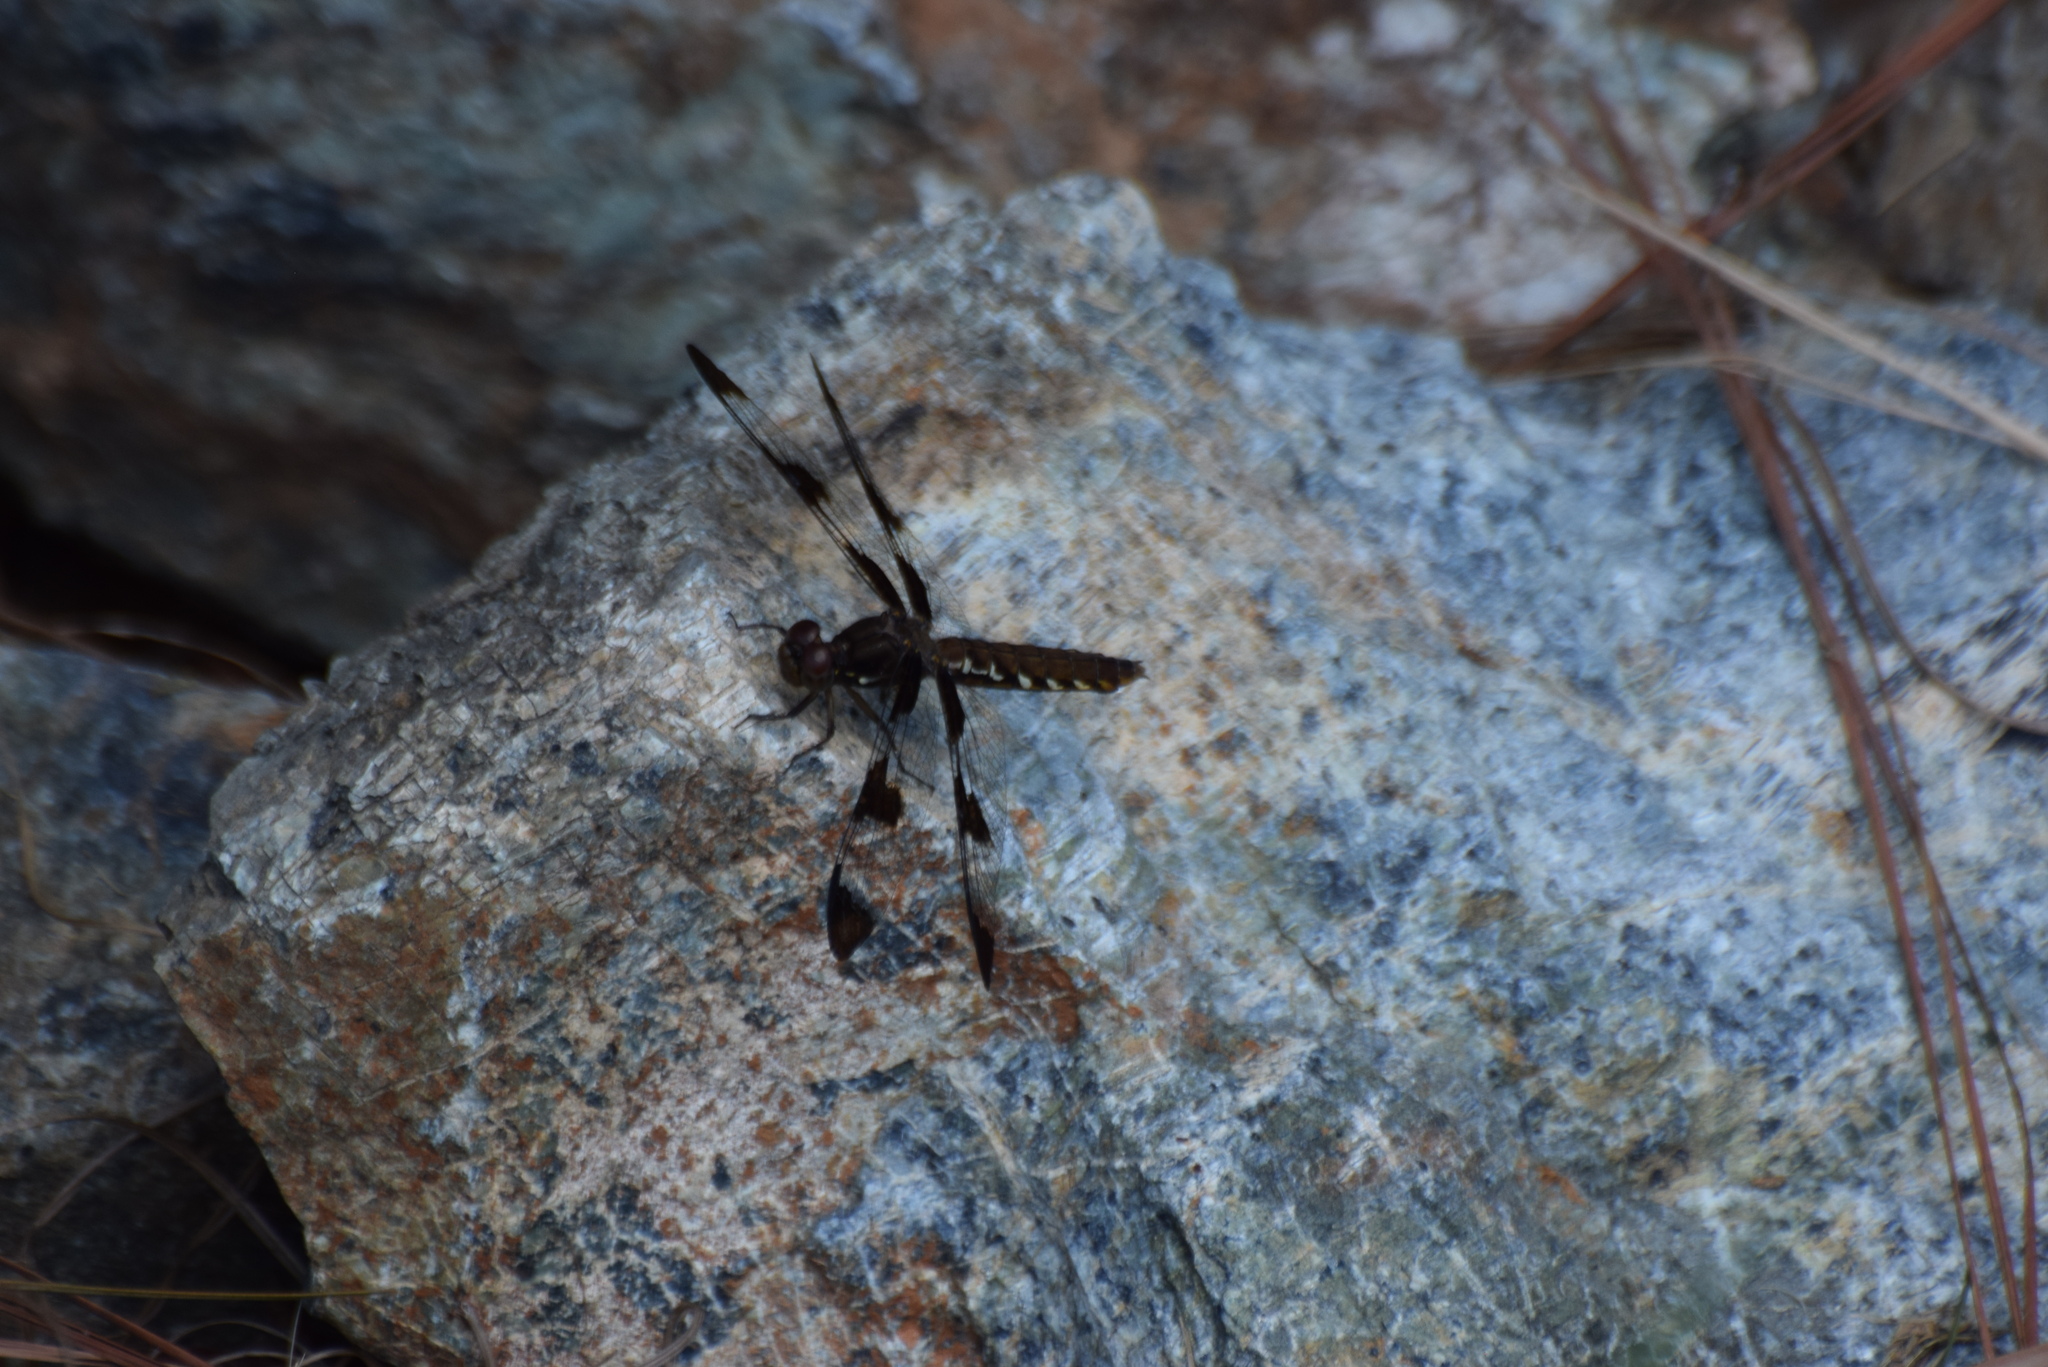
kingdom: Animalia
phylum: Arthropoda
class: Insecta
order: Odonata
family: Libellulidae
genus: Plathemis
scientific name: Plathemis lydia
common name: Common whitetail
